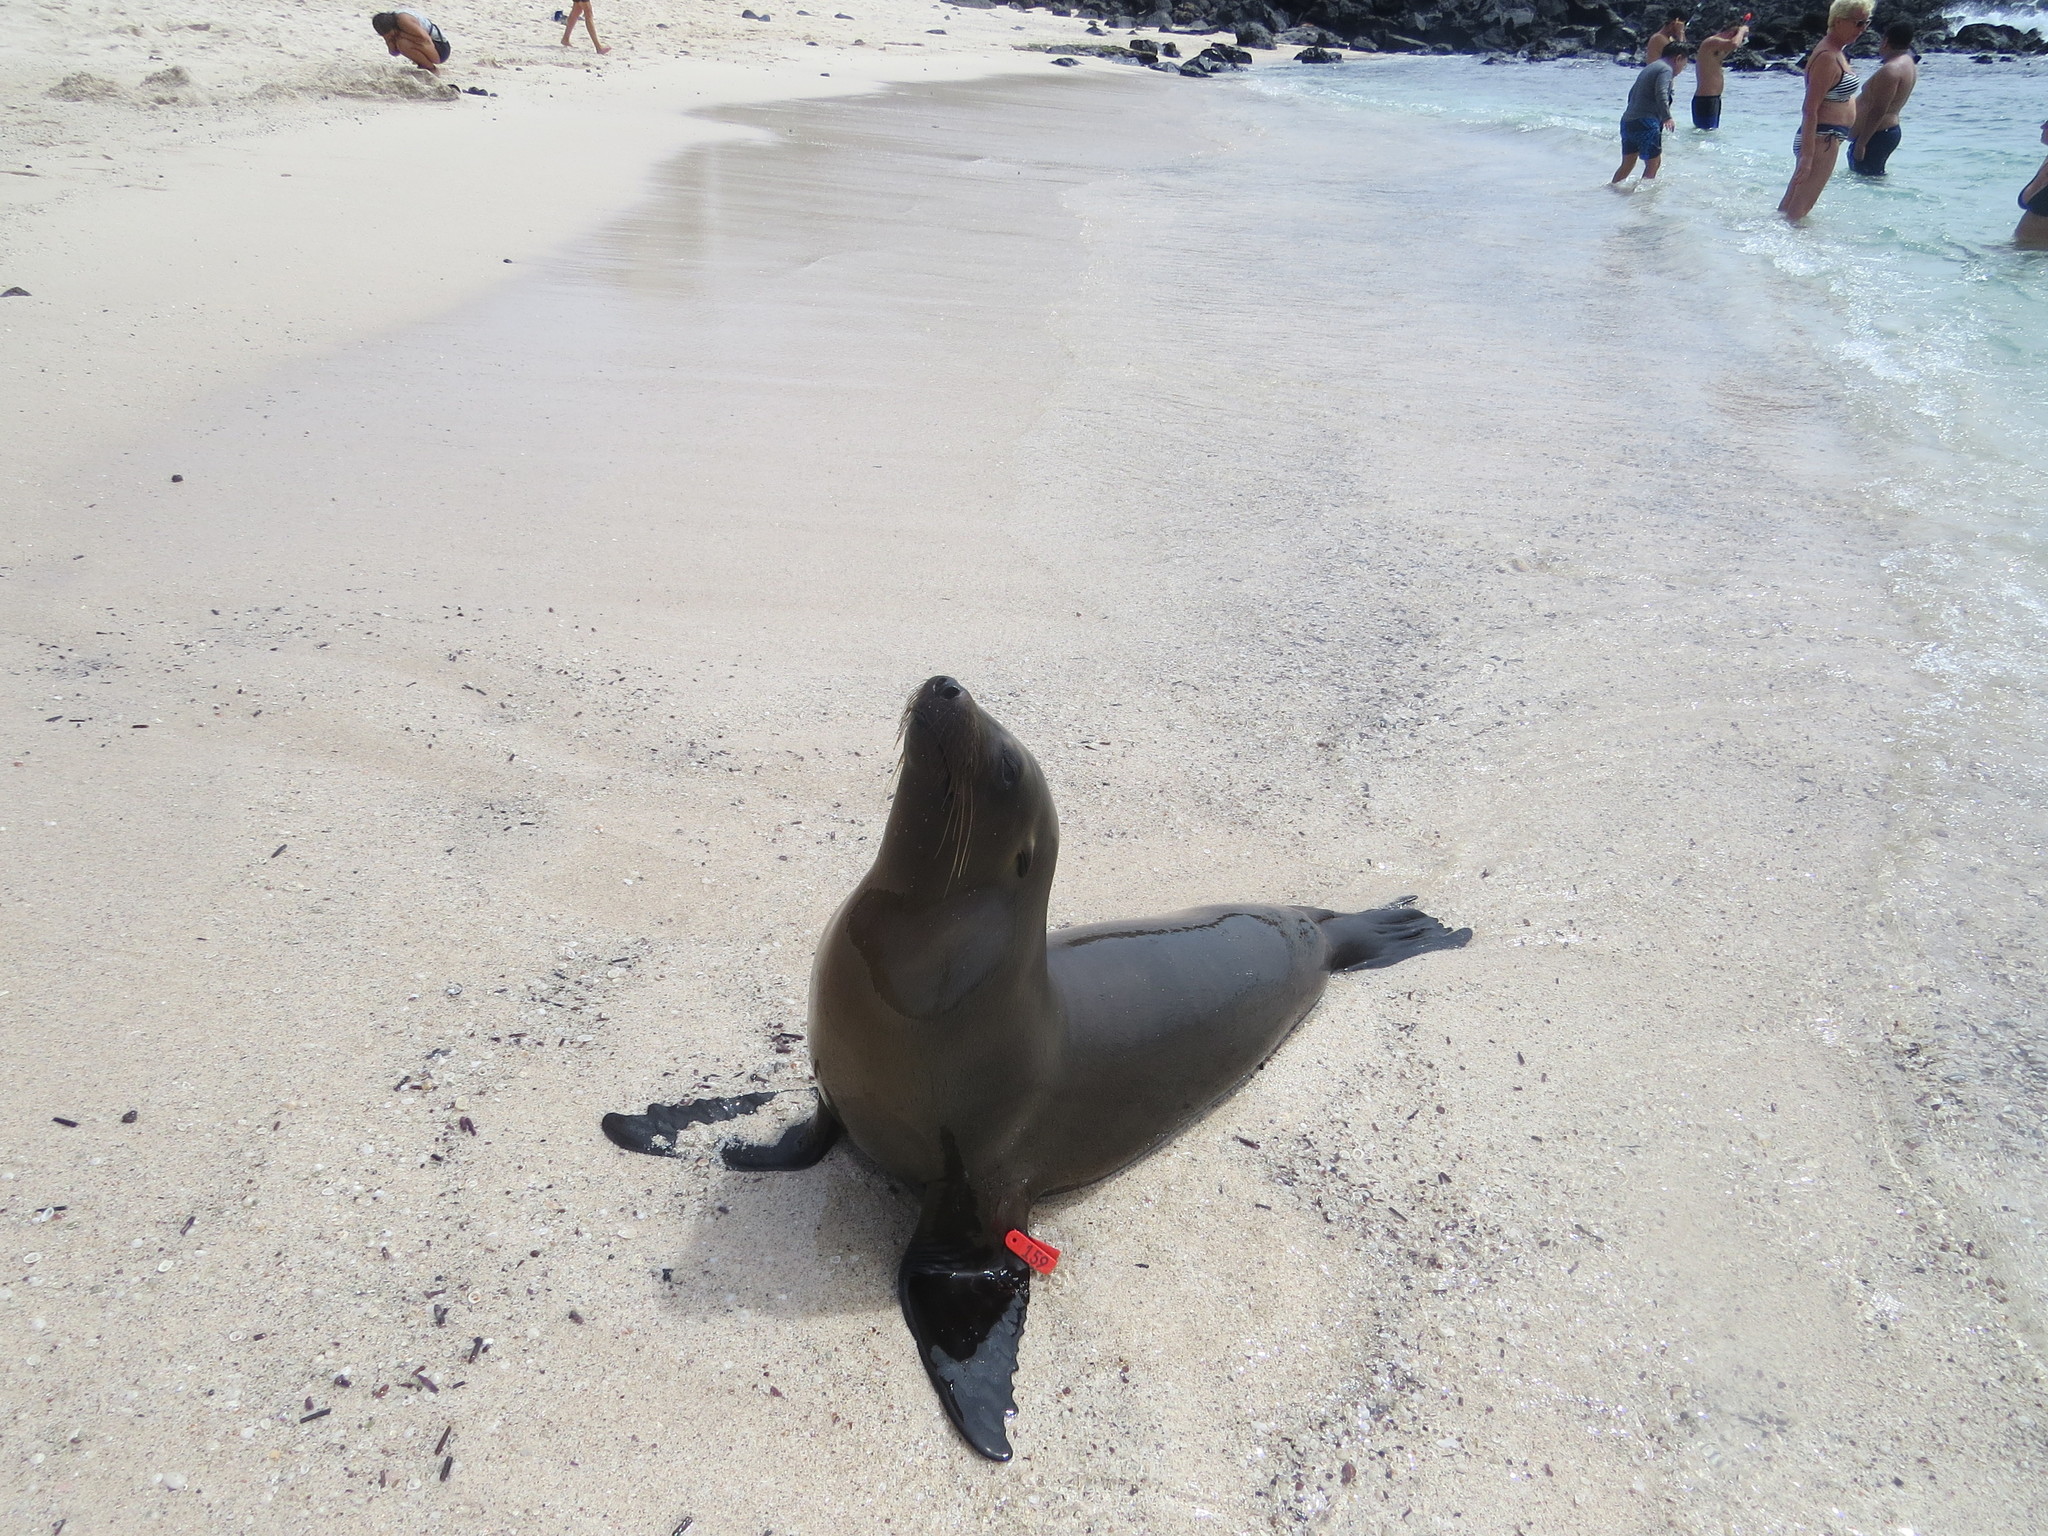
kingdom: Animalia
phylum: Chordata
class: Mammalia
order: Carnivora
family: Otariidae
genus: Zalophus
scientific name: Zalophus wollebaeki
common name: Galapagos sea lion
